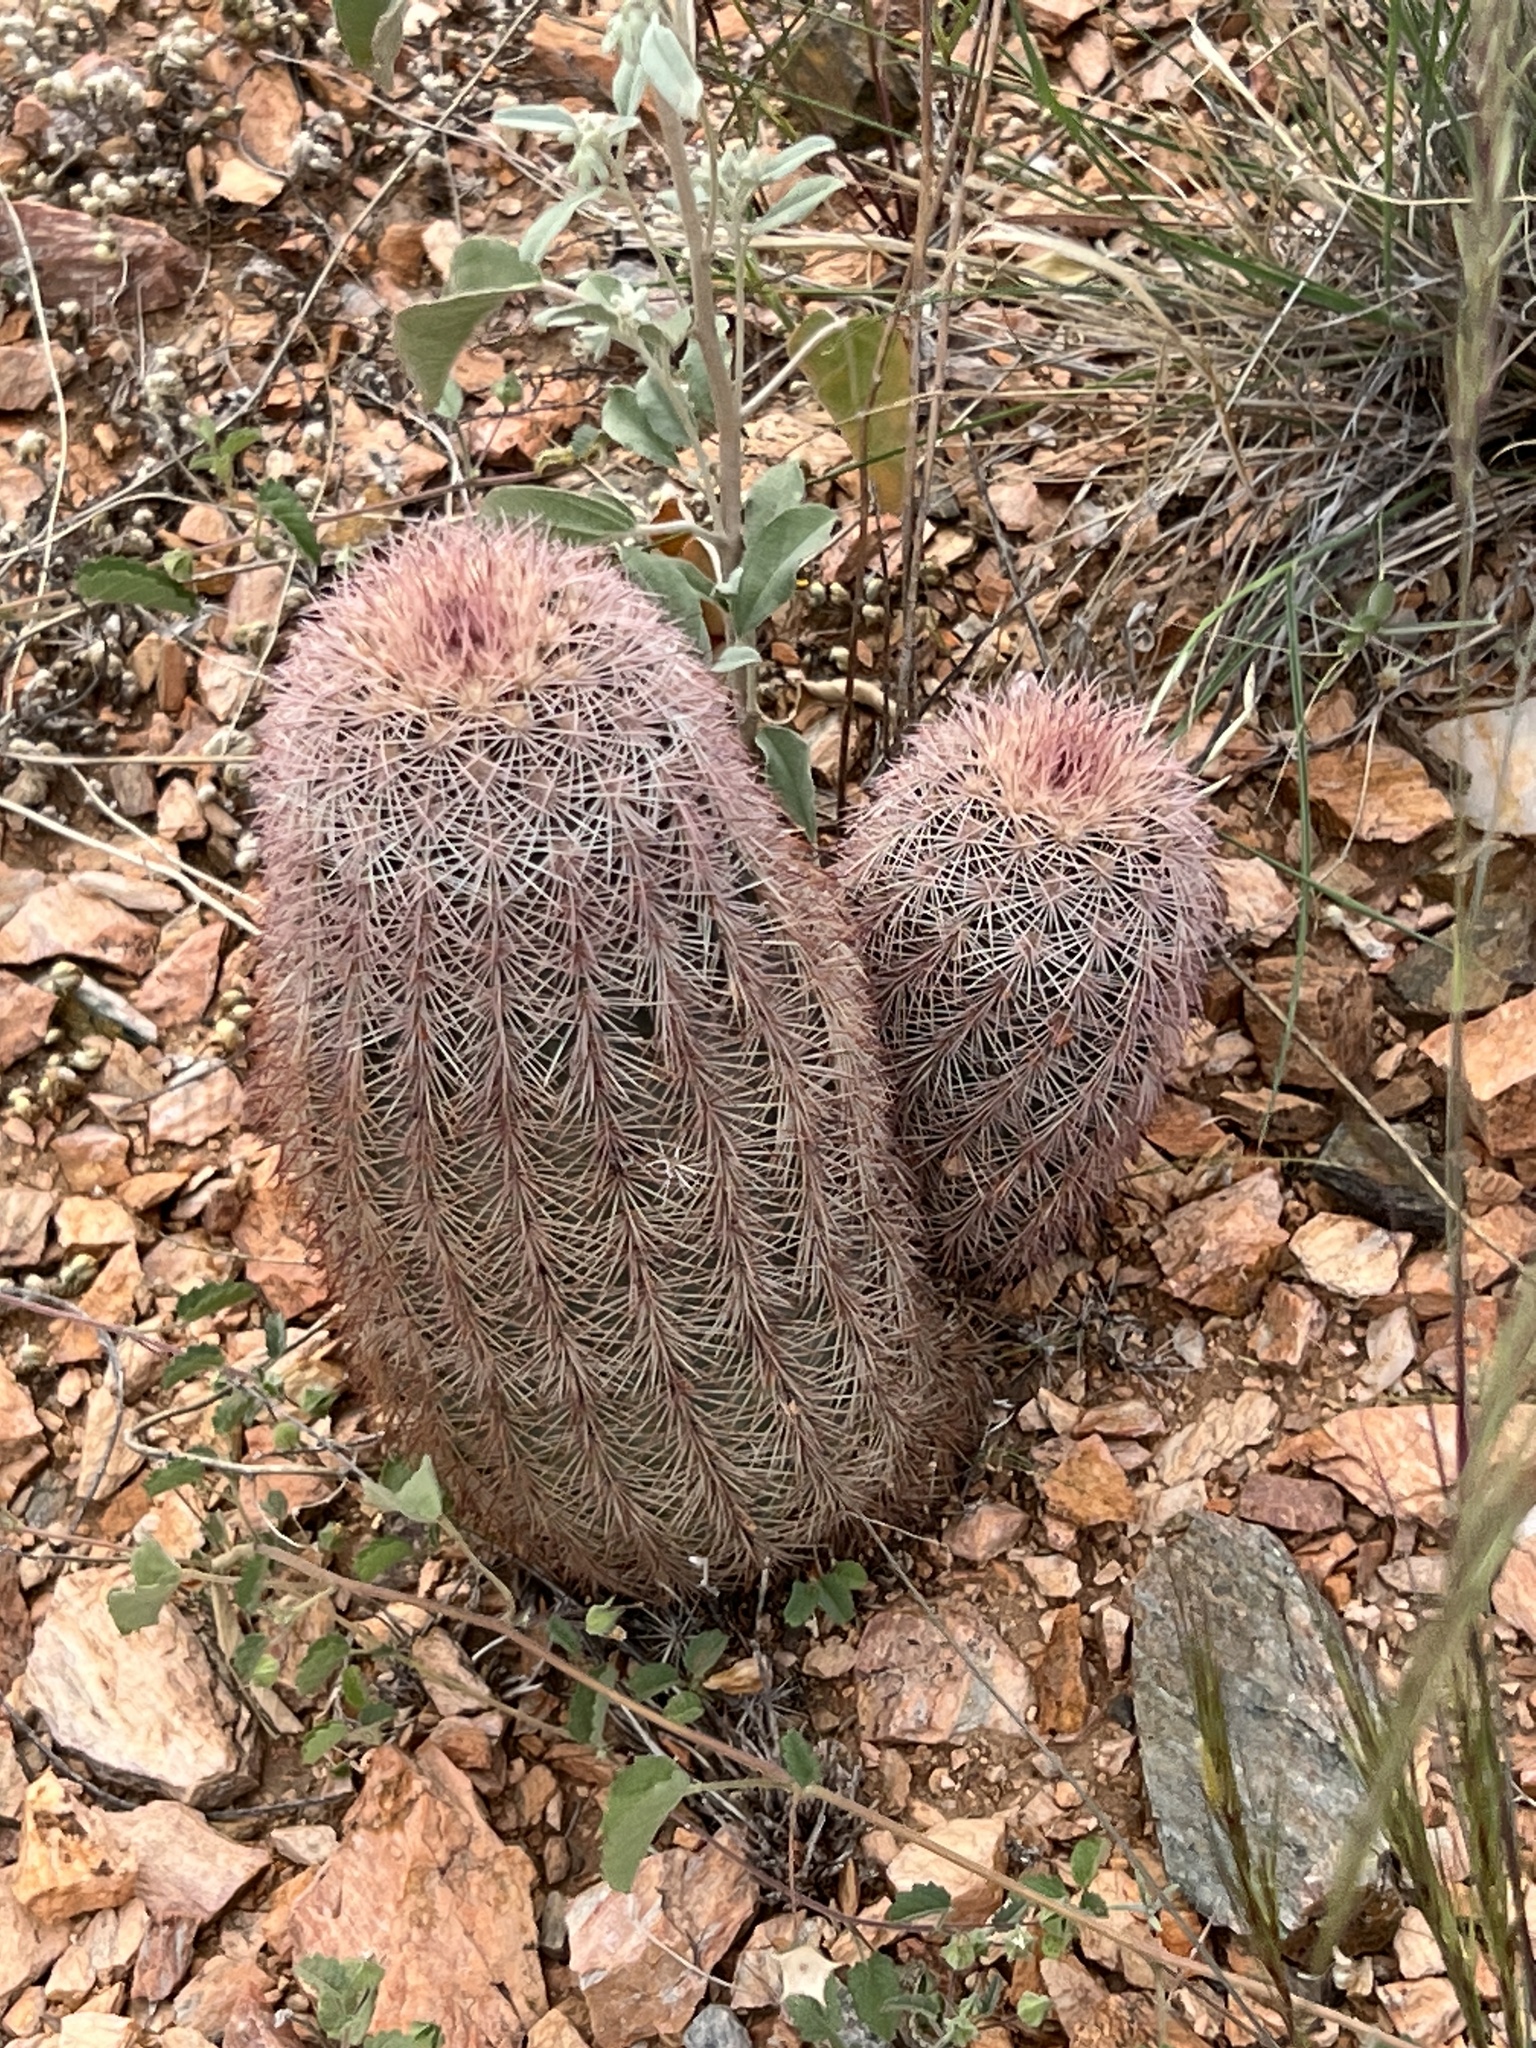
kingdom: Plantae
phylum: Tracheophyta
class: Magnoliopsida
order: Caryophyllales
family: Cactaceae
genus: Echinocereus
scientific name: Echinocereus dasyacanthus
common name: Spiny hedgehog cactus
